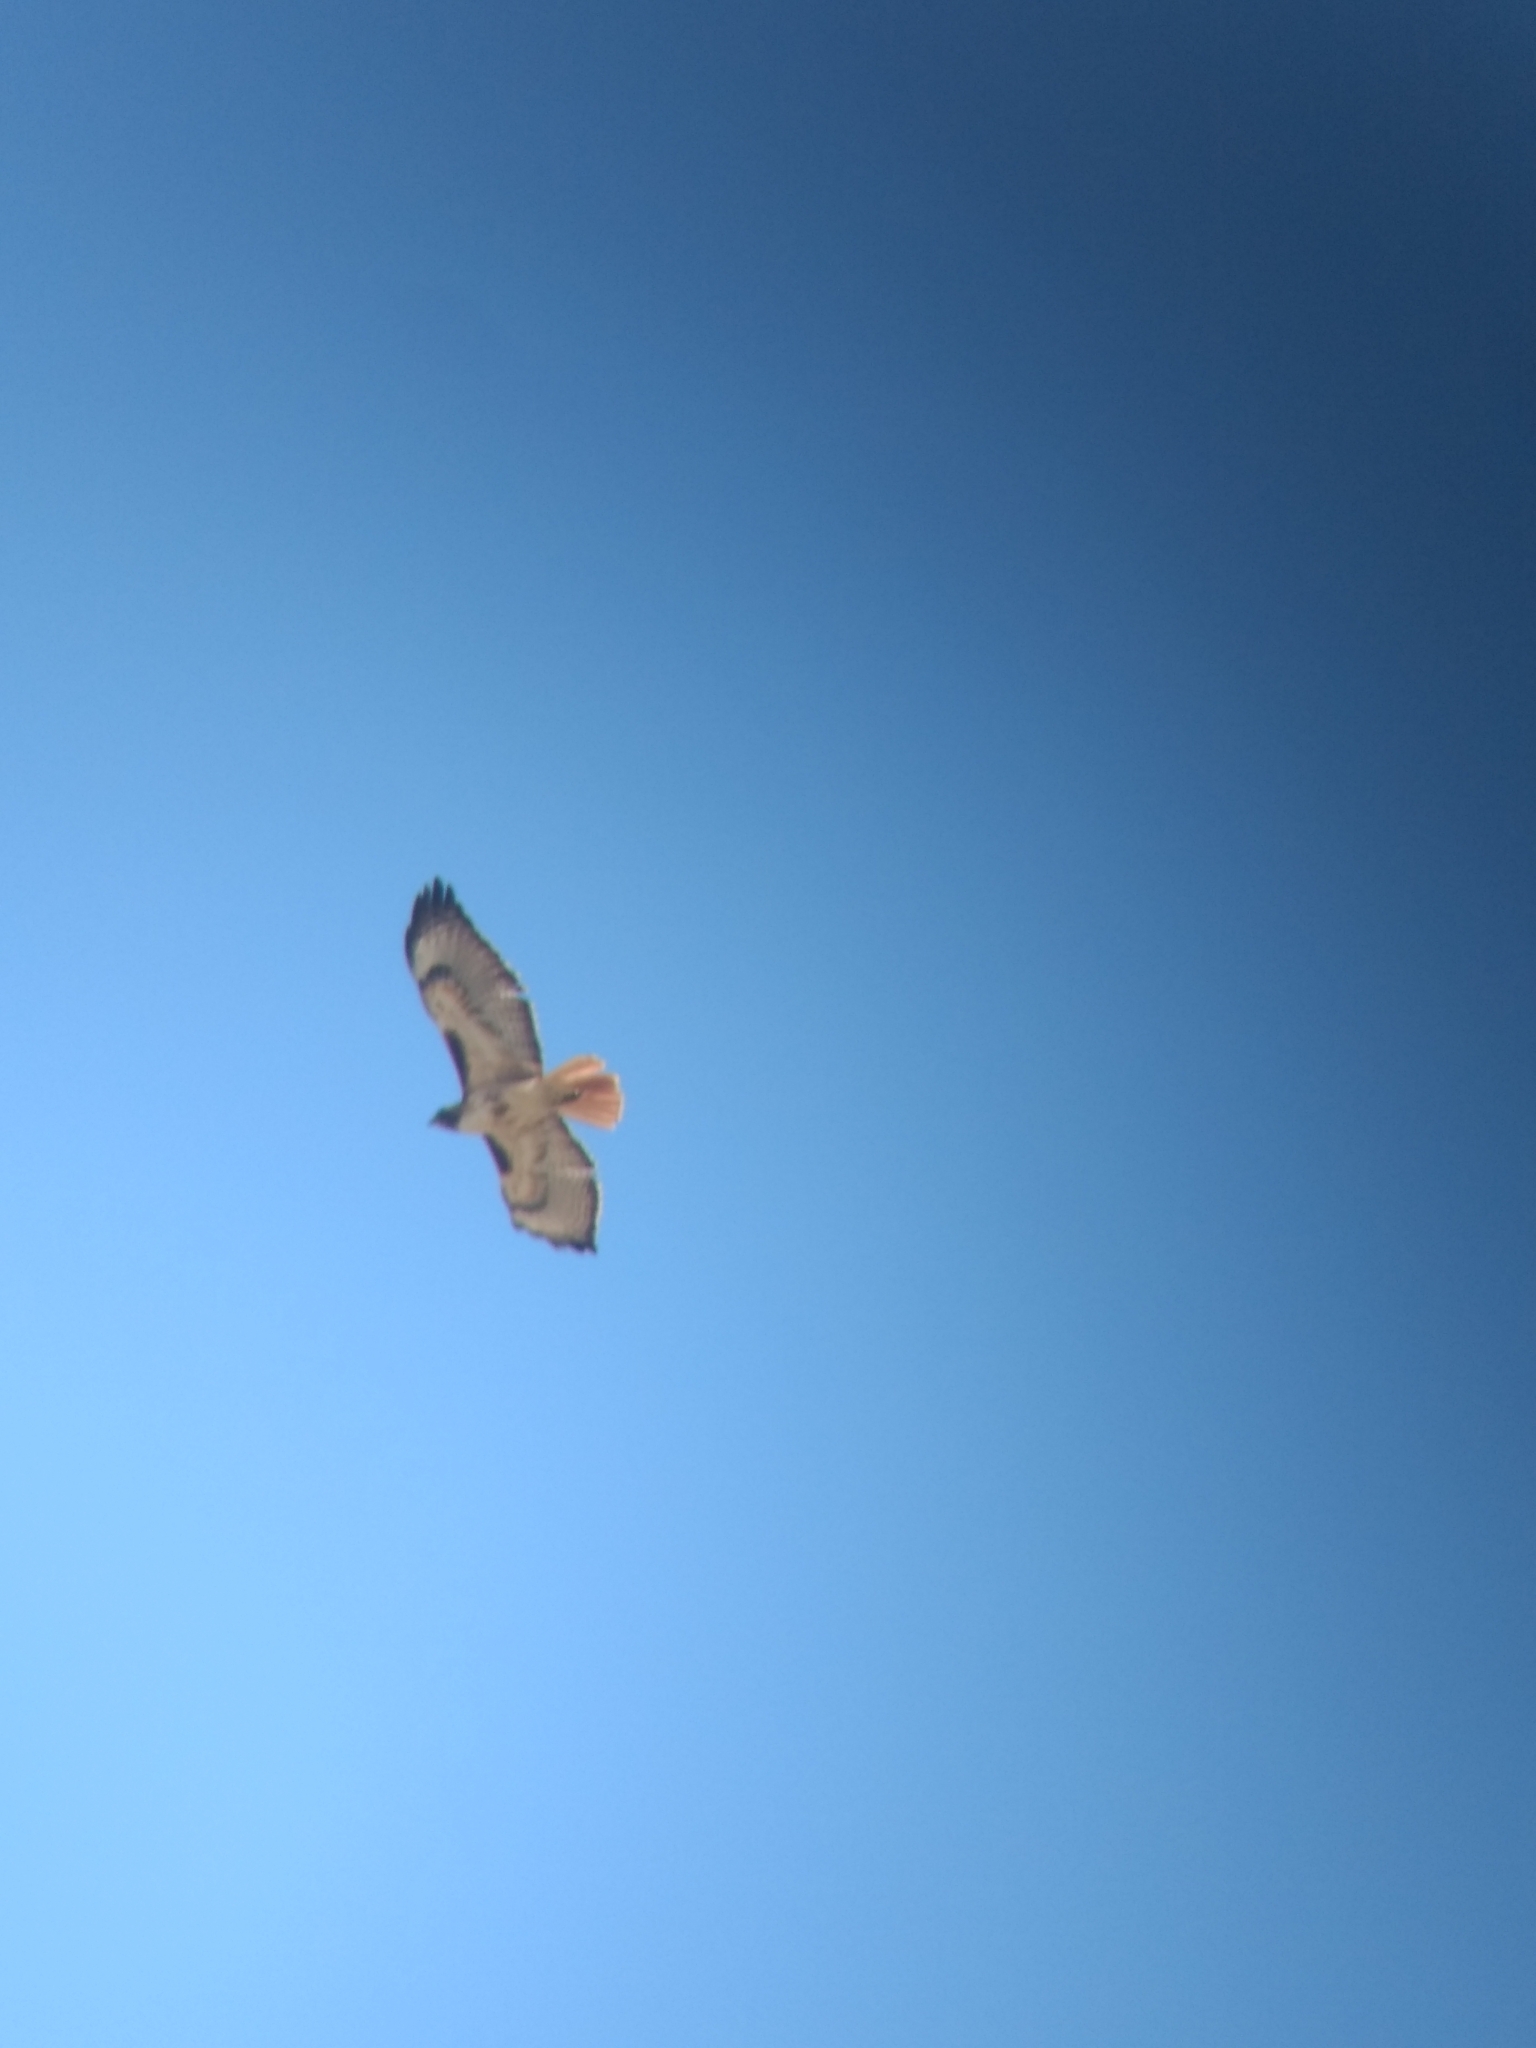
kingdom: Animalia
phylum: Chordata
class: Aves
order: Accipitriformes
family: Accipitridae
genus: Buteo
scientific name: Buteo jamaicensis
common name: Red-tailed hawk
